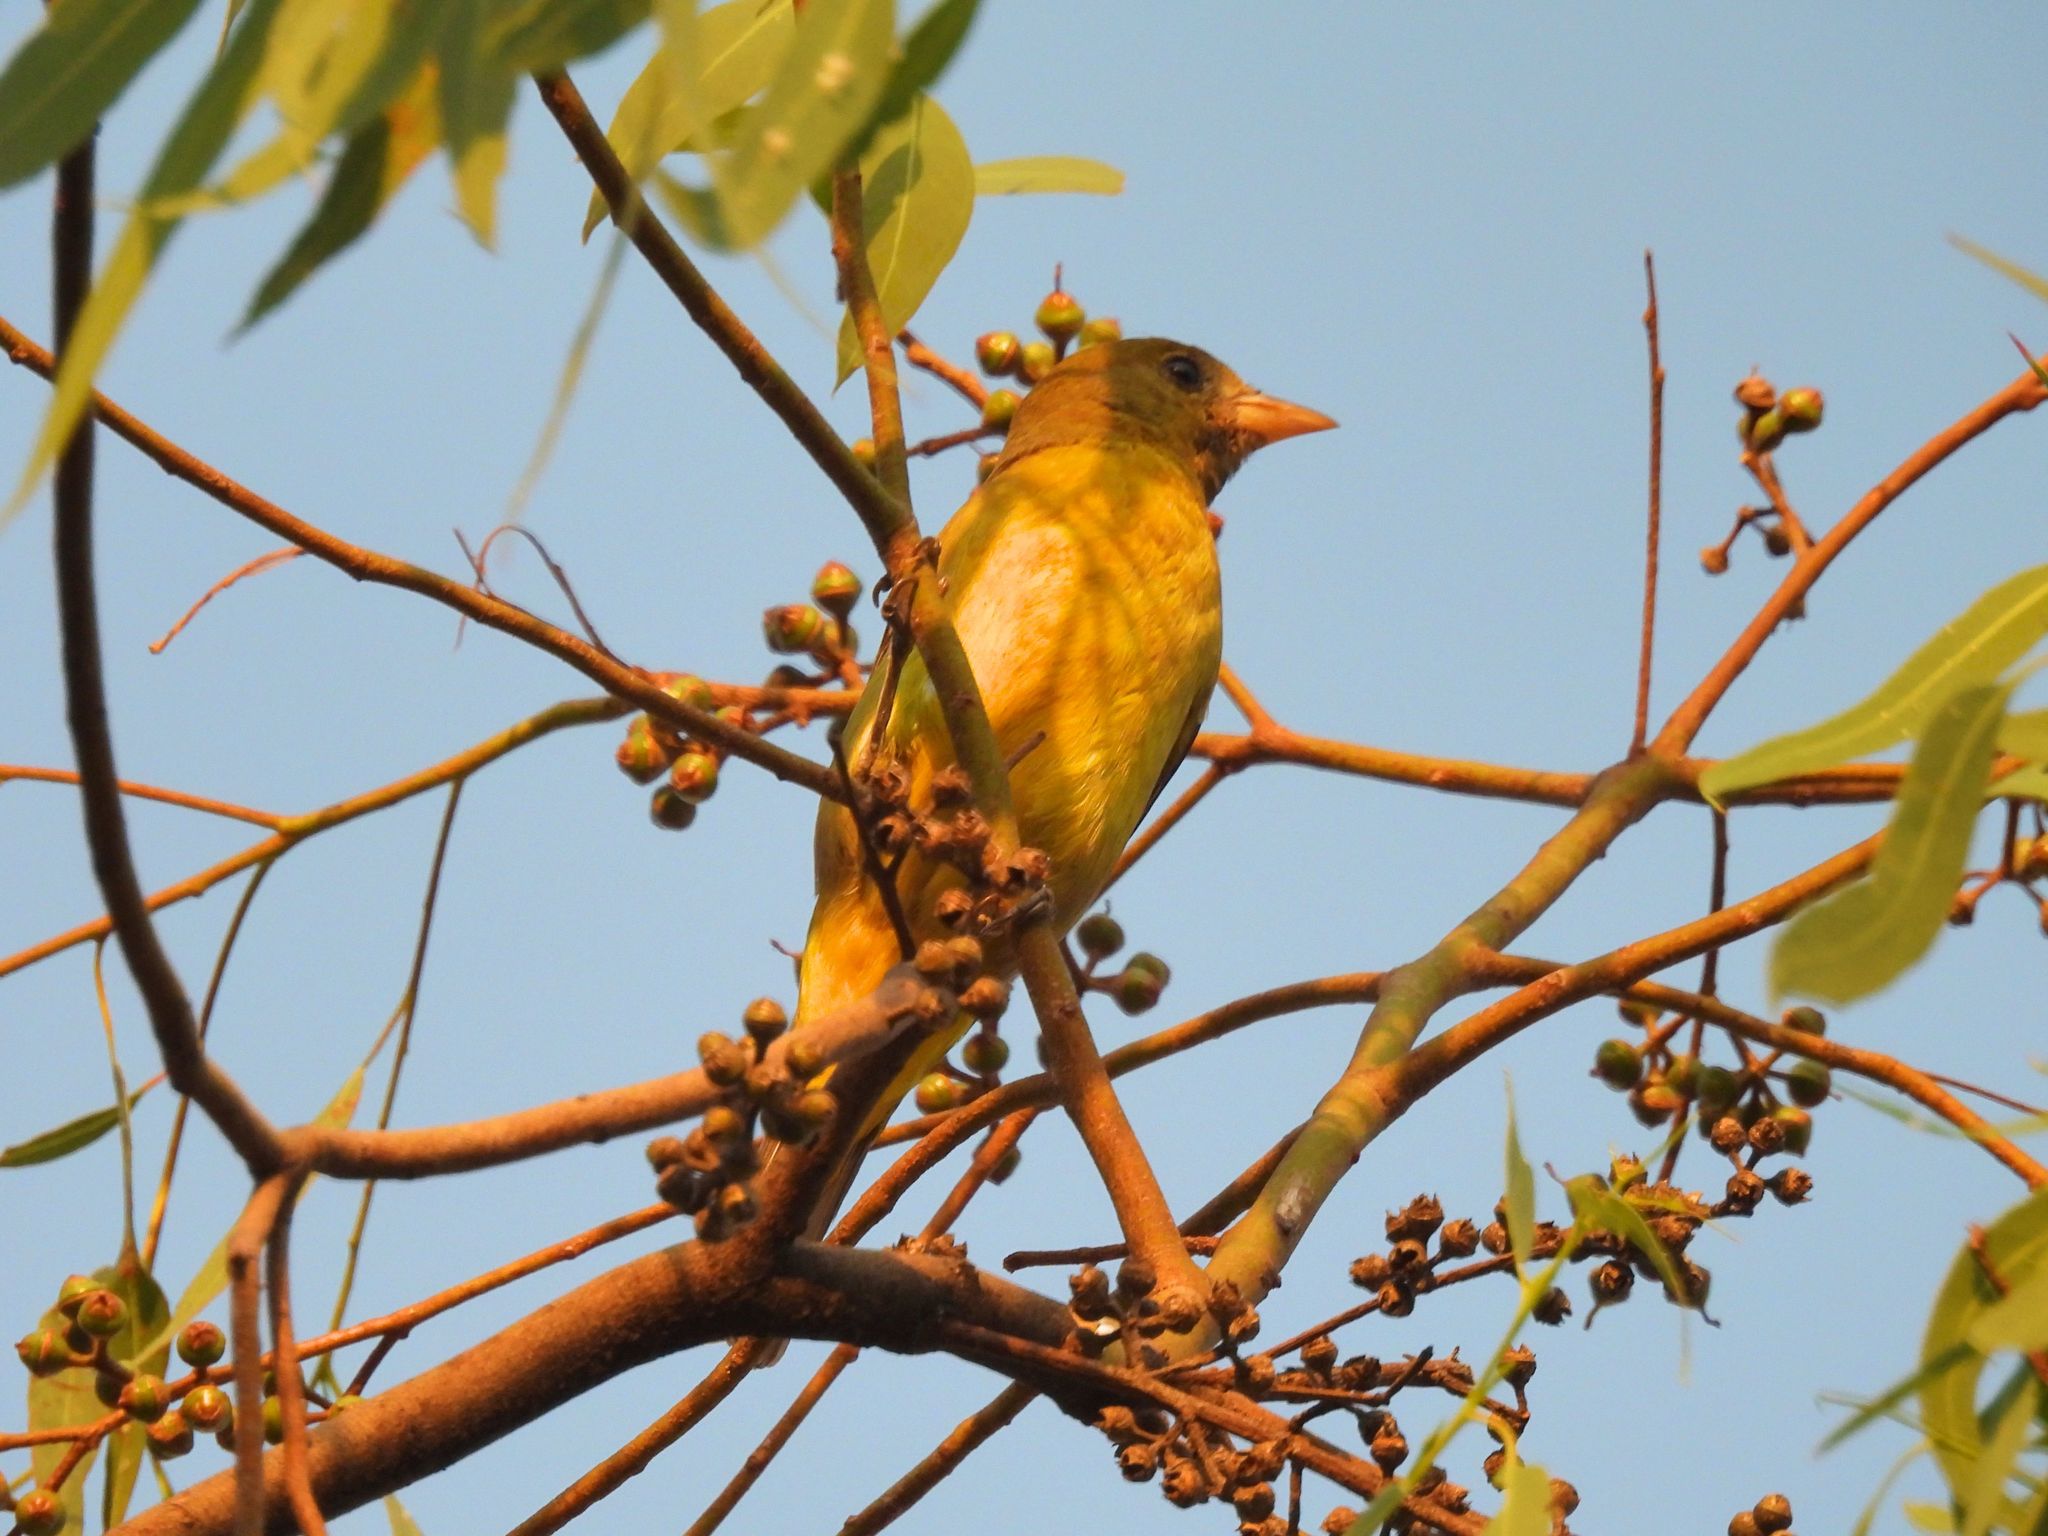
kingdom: Animalia
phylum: Chordata
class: Aves
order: Passeriformes
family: Cardinalidae
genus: Piranga
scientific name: Piranga ludoviciana
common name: Western tanager
